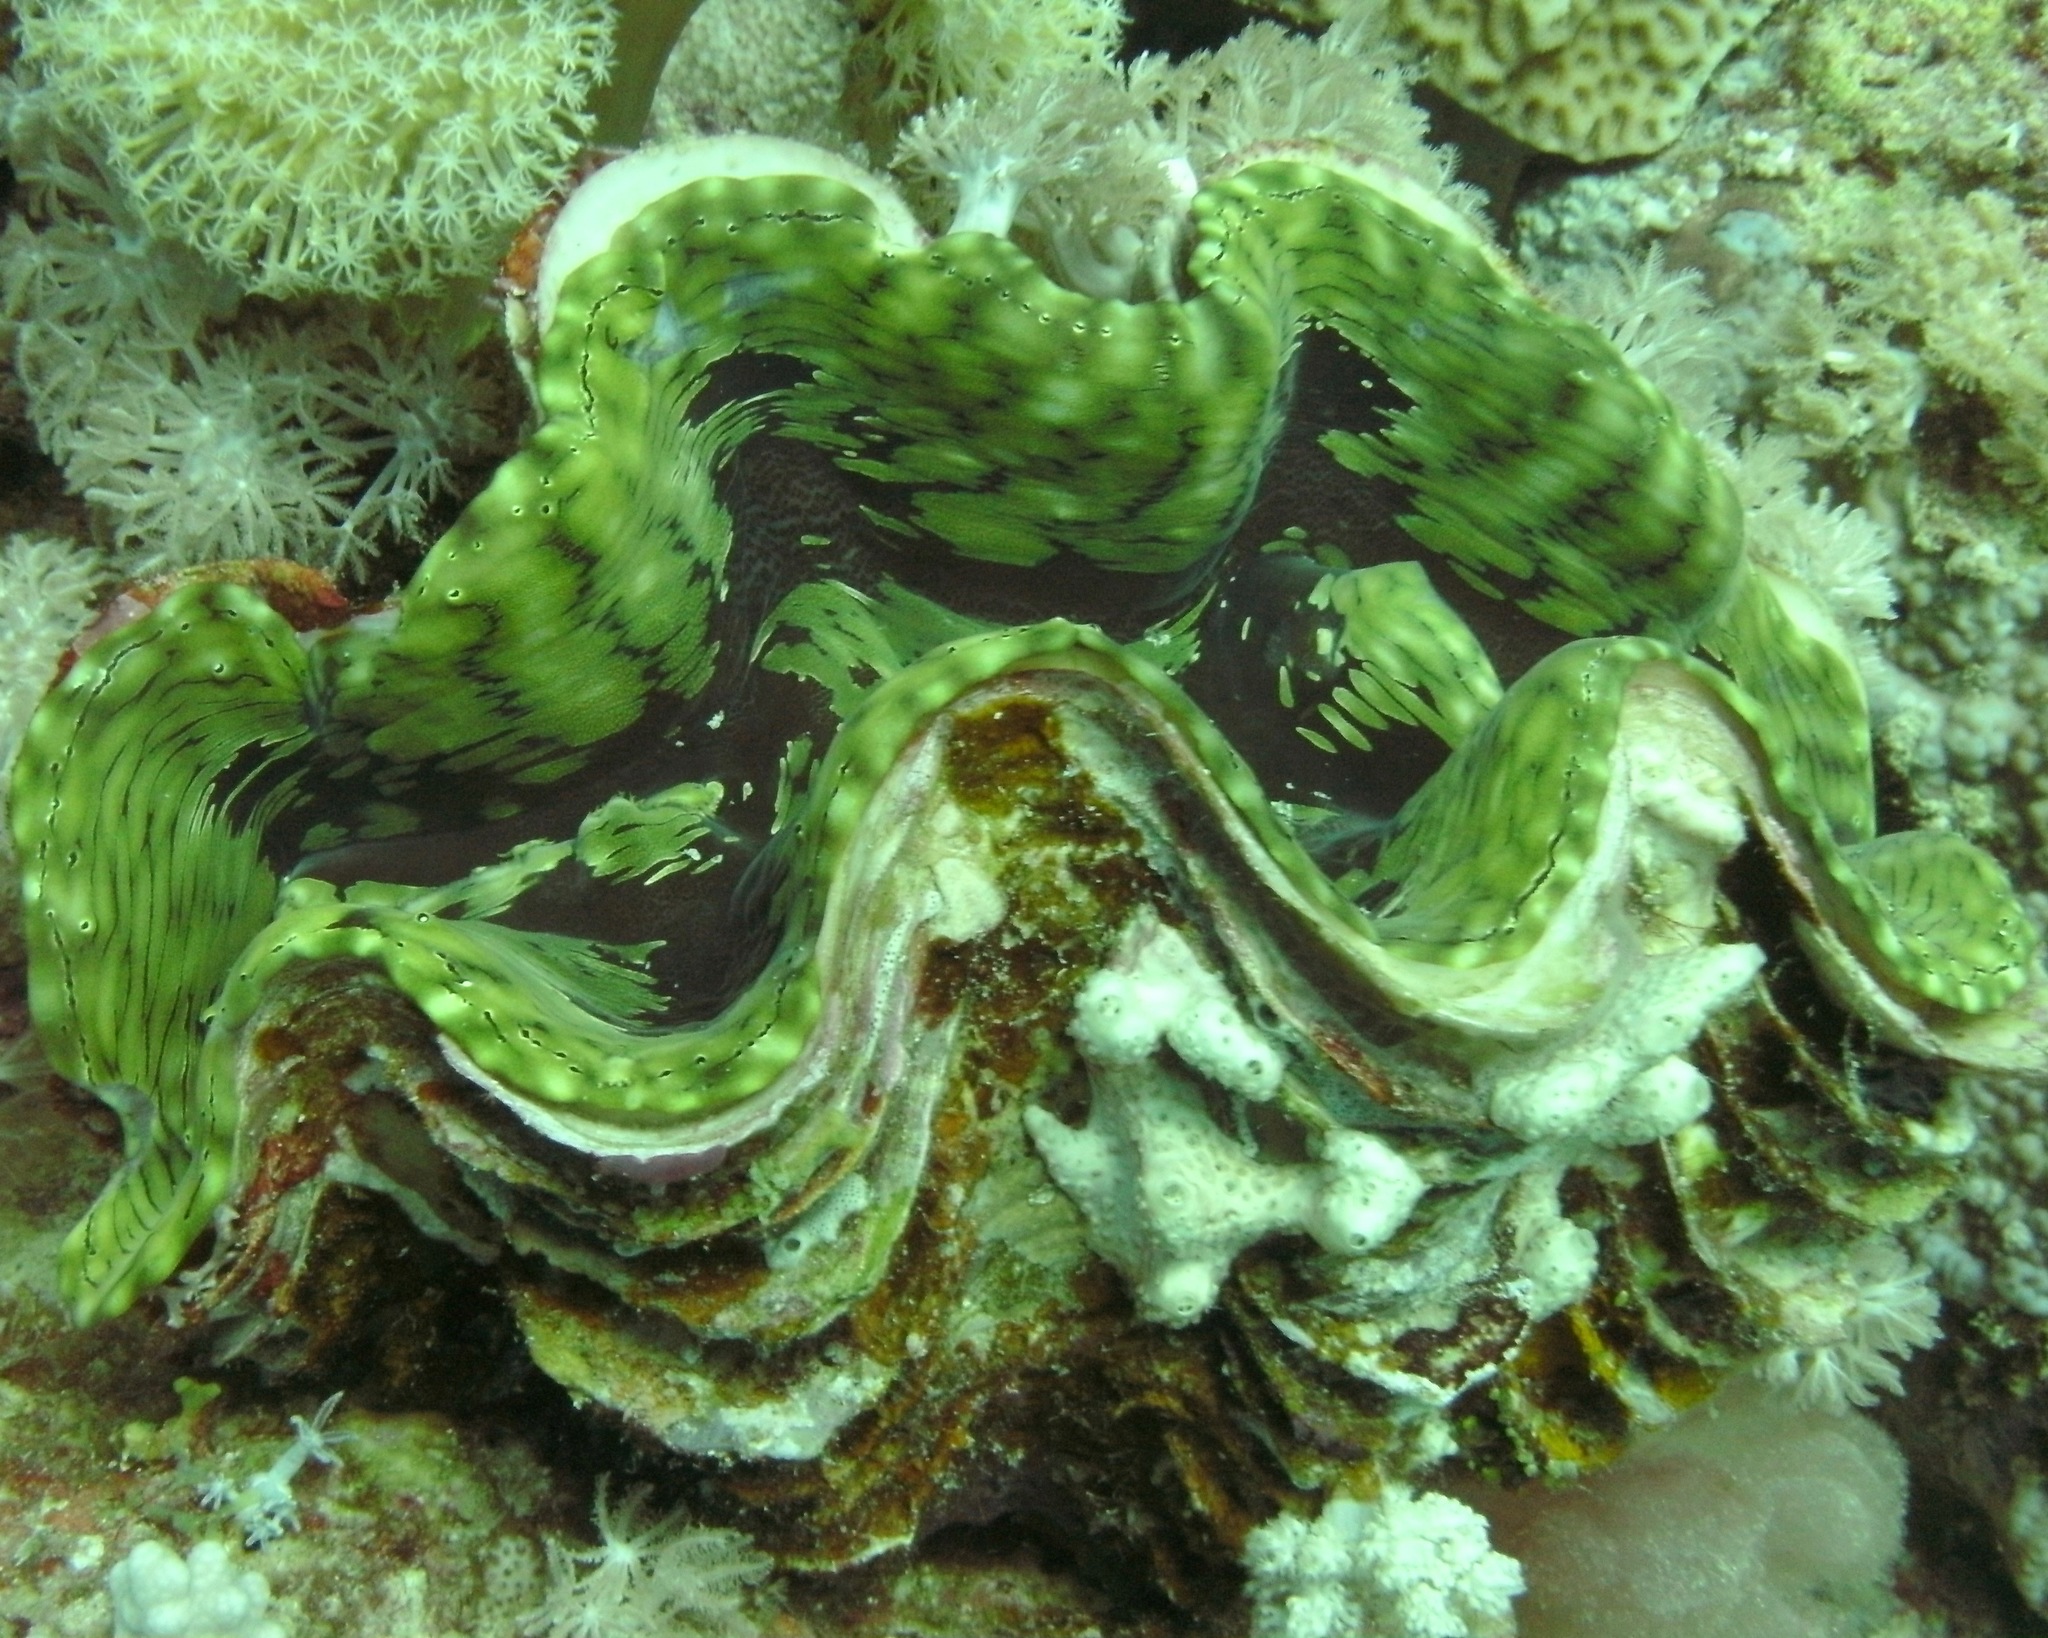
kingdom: Animalia
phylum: Mollusca
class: Bivalvia
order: Cardiida
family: Cardiidae
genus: Tridacna
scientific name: Tridacna squamosa
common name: Fluted clam
